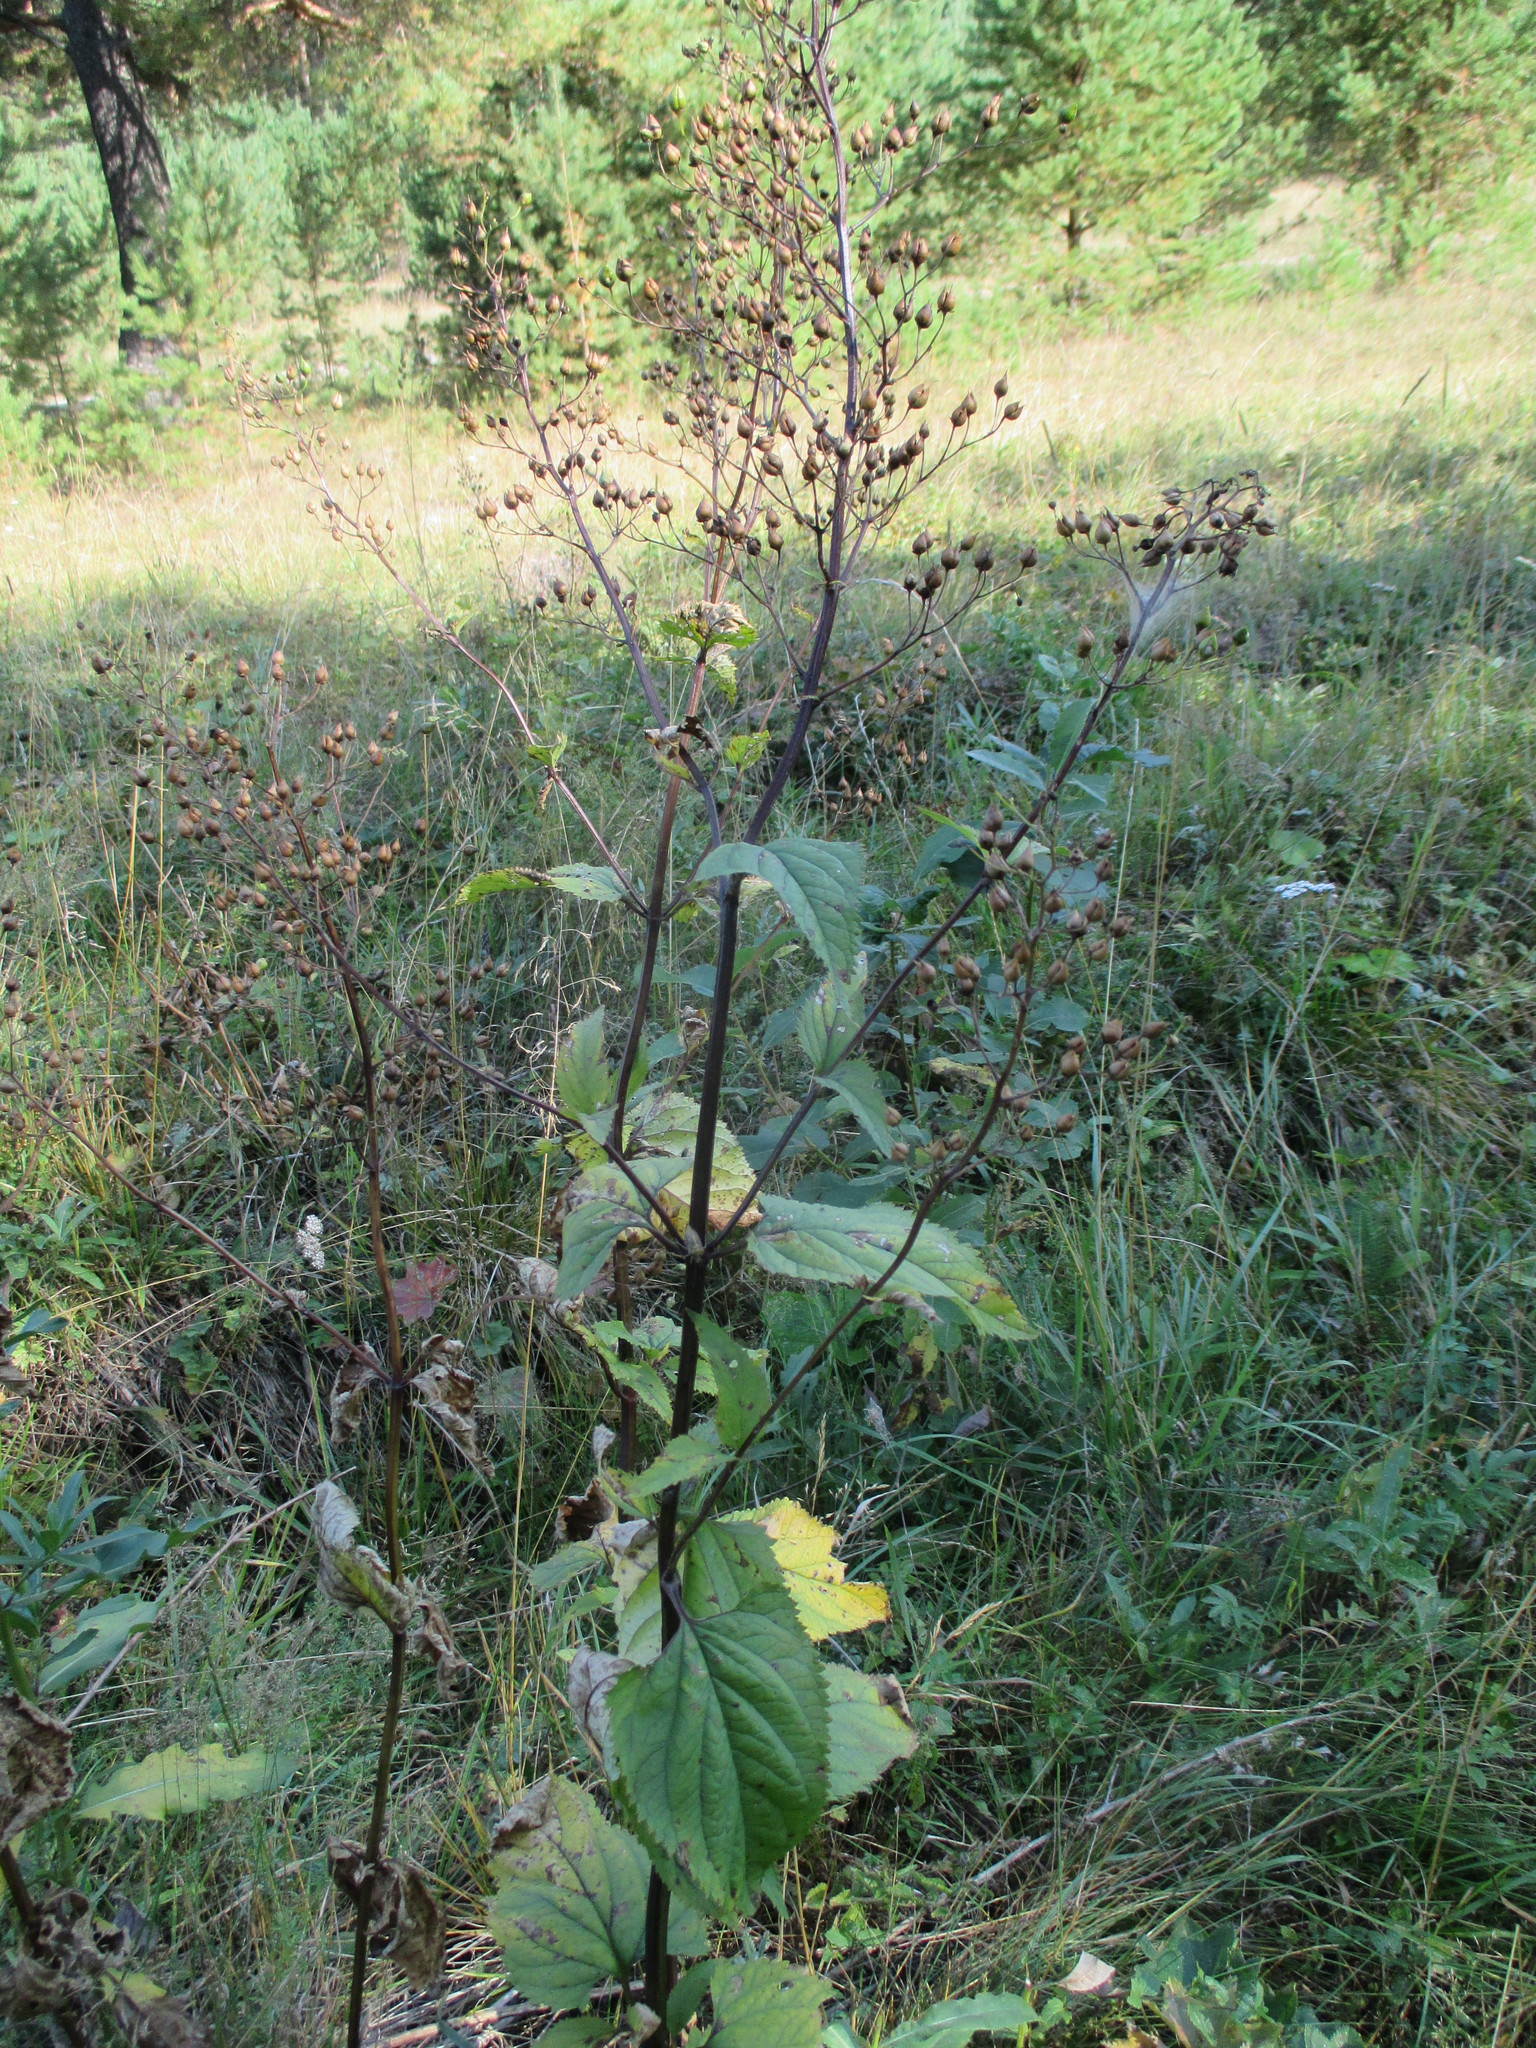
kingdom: Plantae
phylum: Tracheophyta
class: Magnoliopsida
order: Lamiales
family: Scrophulariaceae
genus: Scrophularia
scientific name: Scrophularia nodosa
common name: Common figwort
